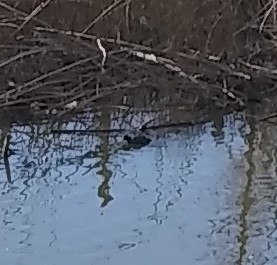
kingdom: Animalia
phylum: Chordata
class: Aves
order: Gruiformes
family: Rallidae
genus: Fulica
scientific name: Fulica americana
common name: American coot
